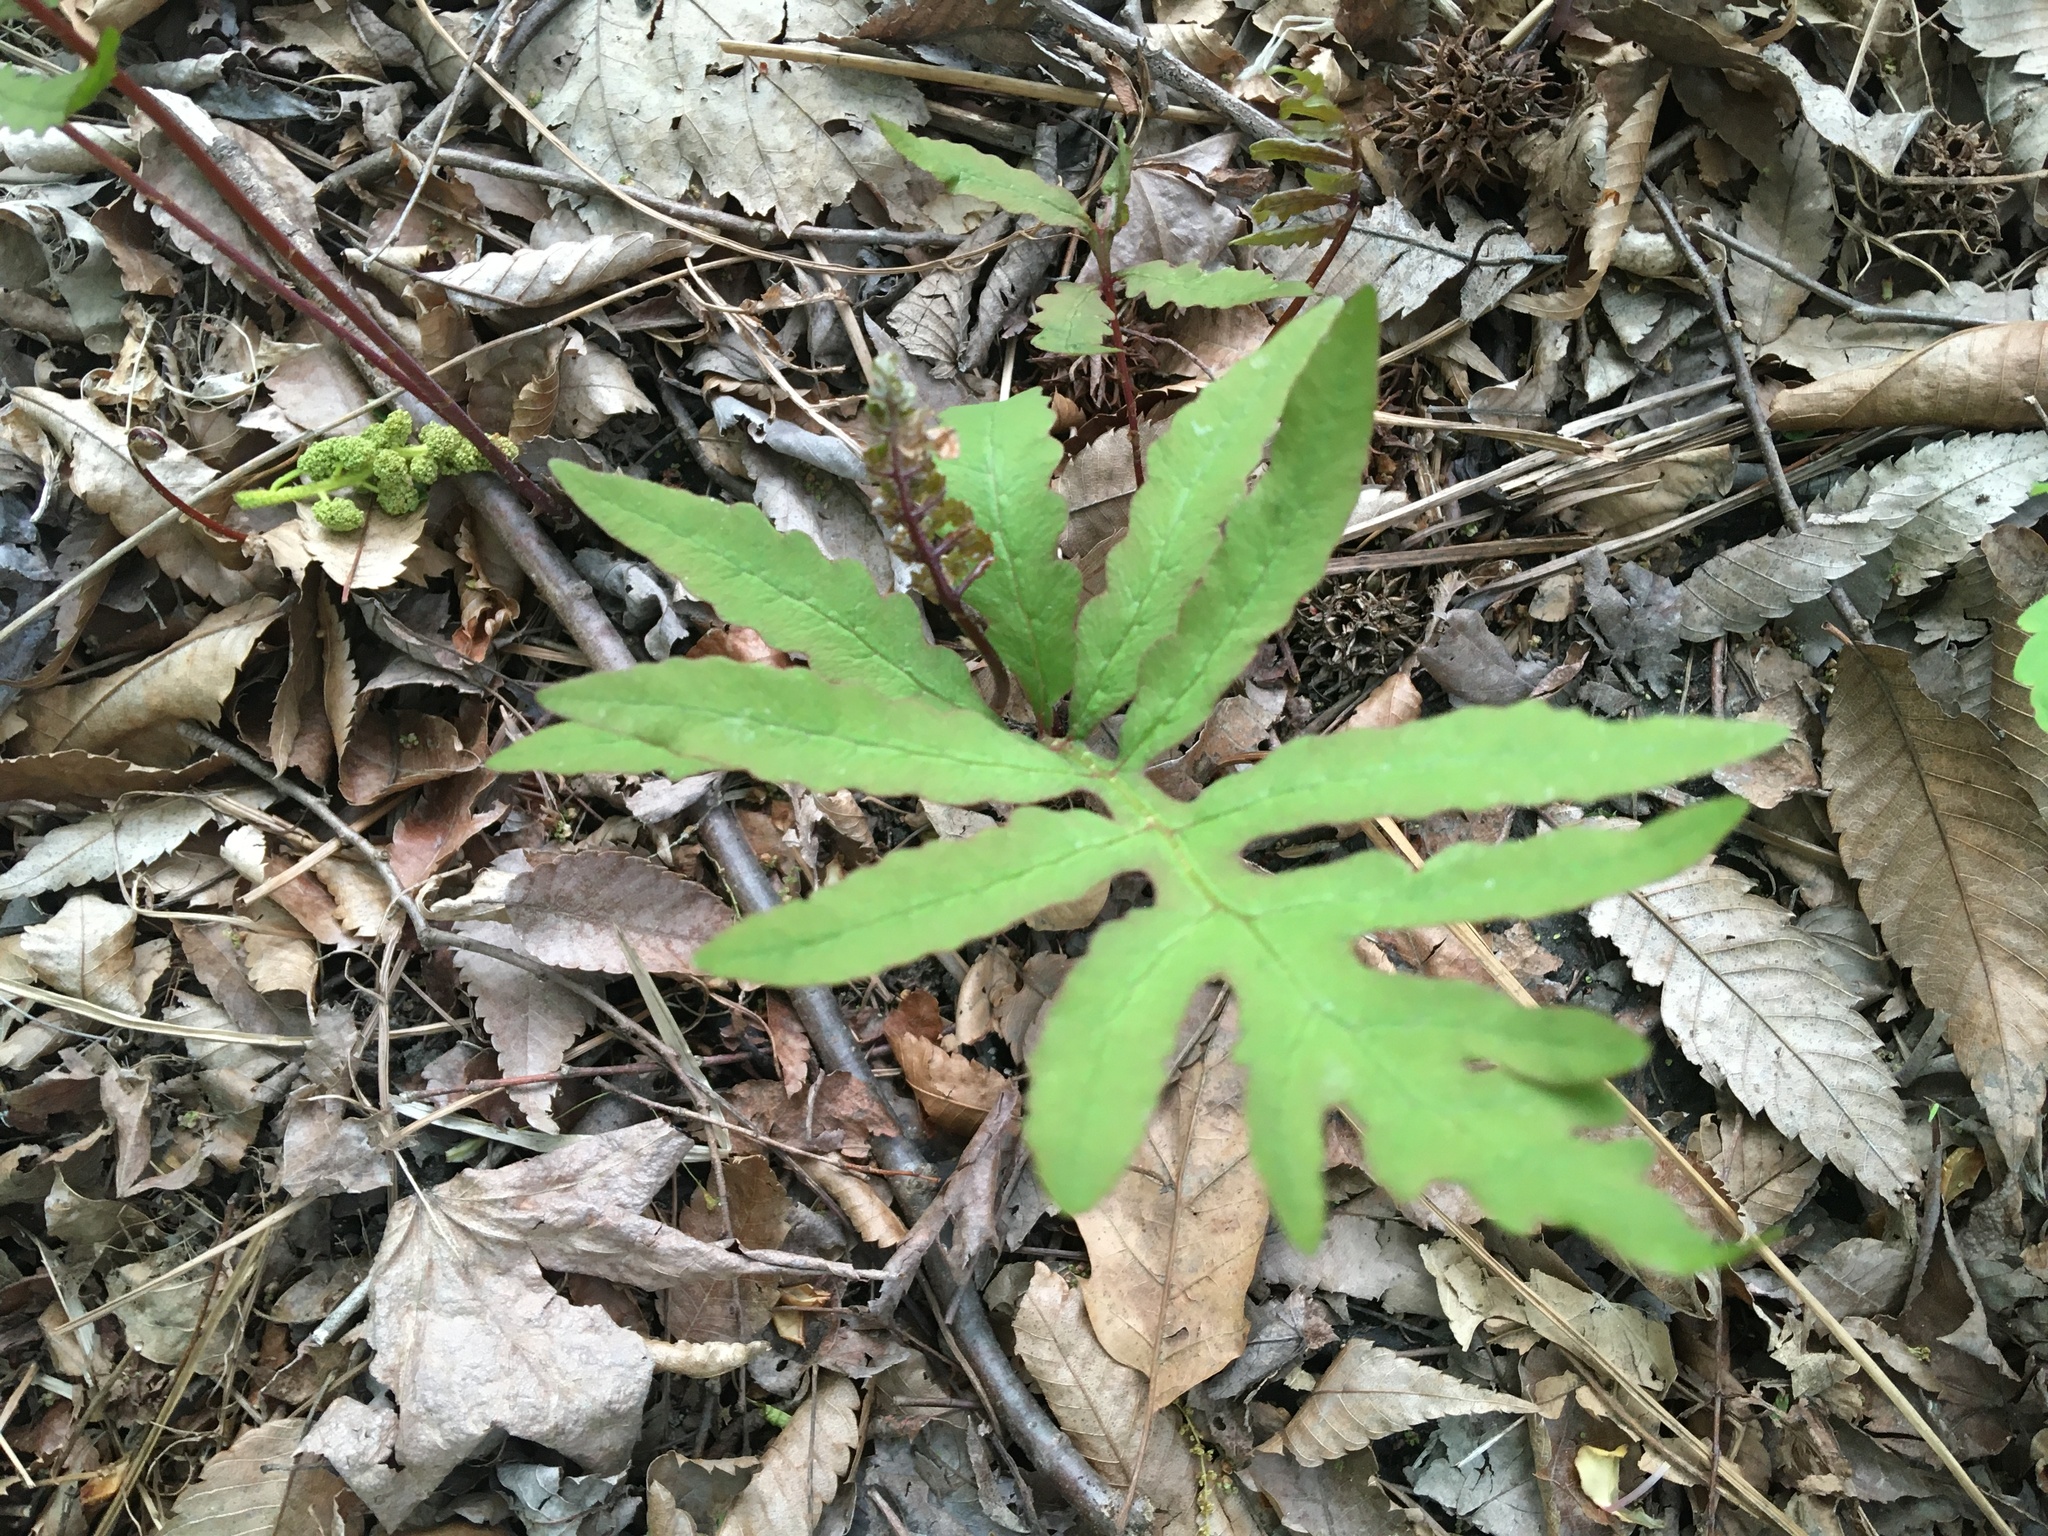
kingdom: Plantae
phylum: Tracheophyta
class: Polypodiopsida
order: Polypodiales
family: Onocleaceae
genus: Onoclea
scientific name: Onoclea sensibilis
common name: Sensitive fern
